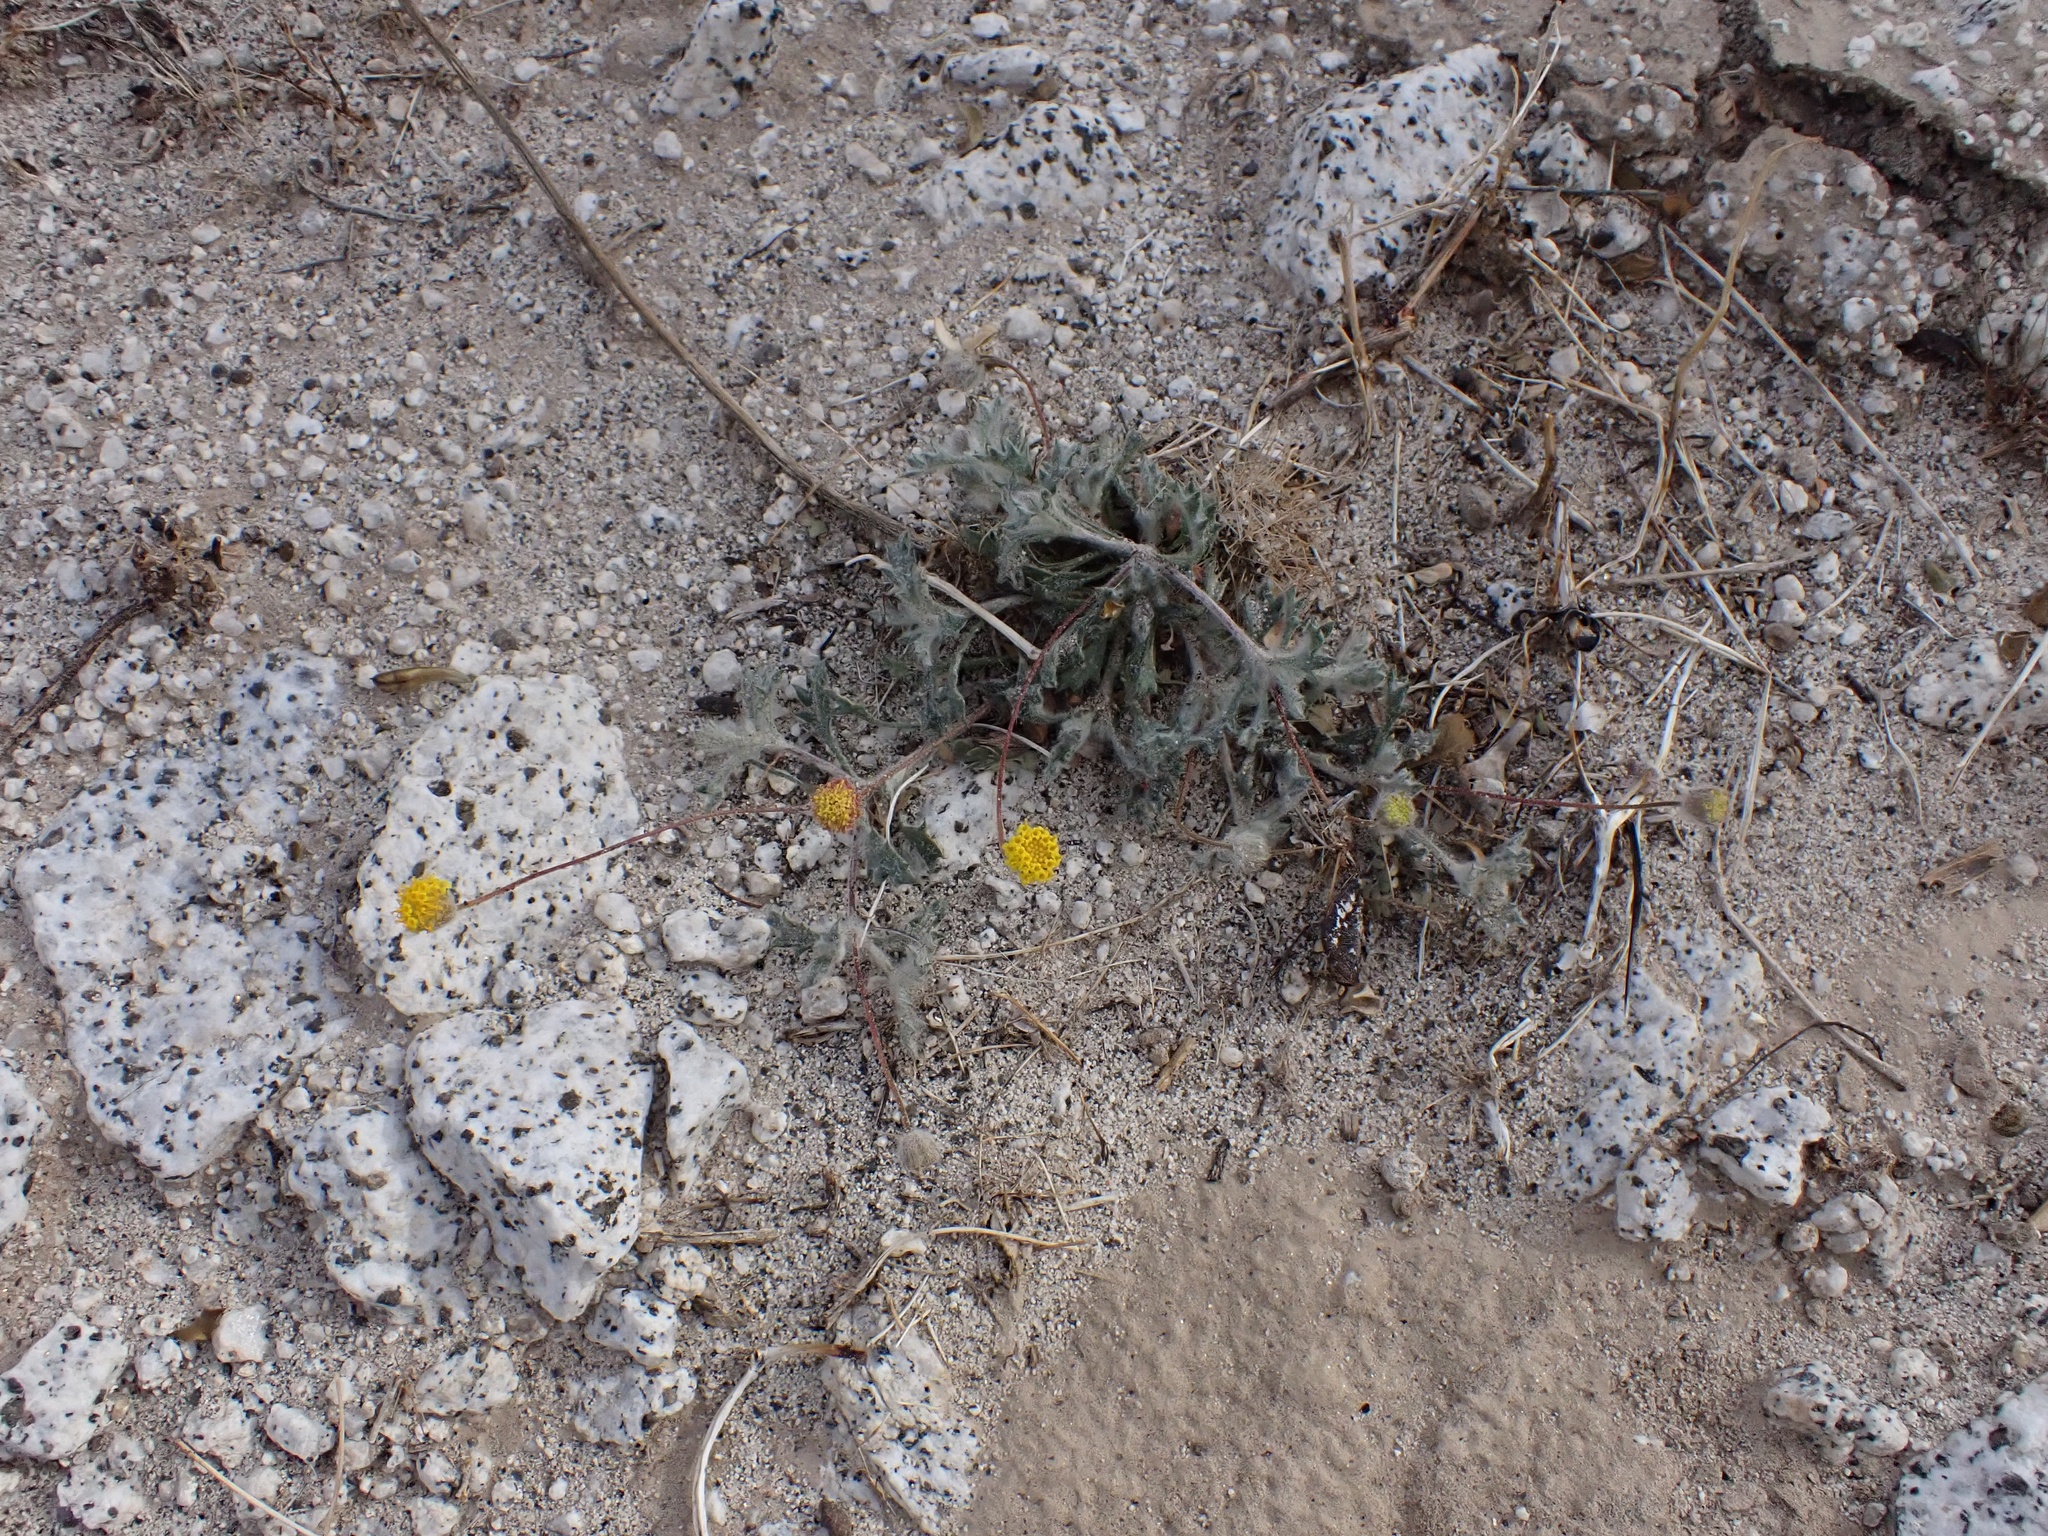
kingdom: Plantae
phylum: Tracheophyta
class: Magnoliopsida
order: Asterales
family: Asteraceae
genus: Trichoptilium
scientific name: Trichoptilium incisum
